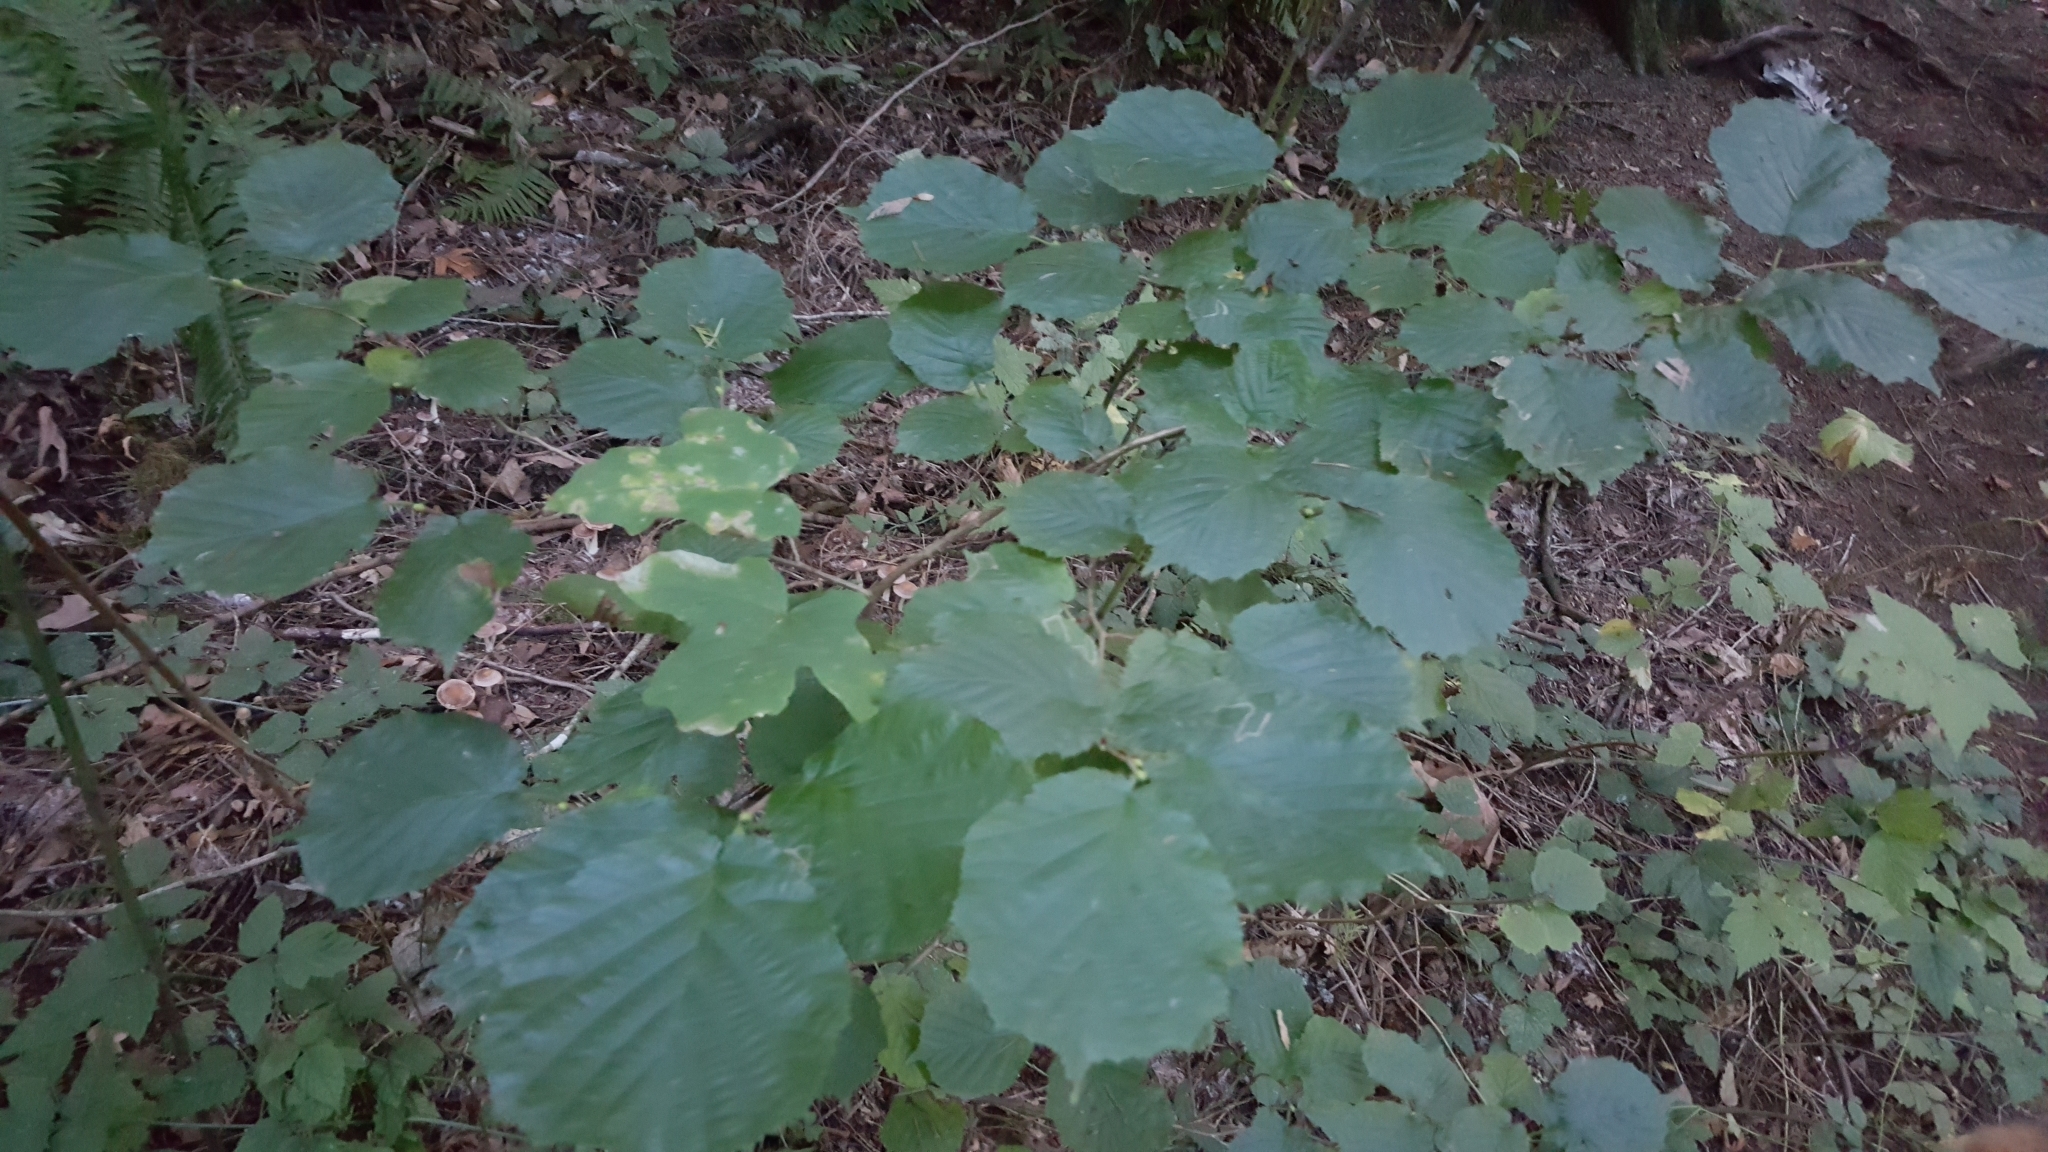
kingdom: Plantae
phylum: Tracheophyta
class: Magnoliopsida
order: Fagales
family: Betulaceae
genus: Corylus
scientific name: Corylus
